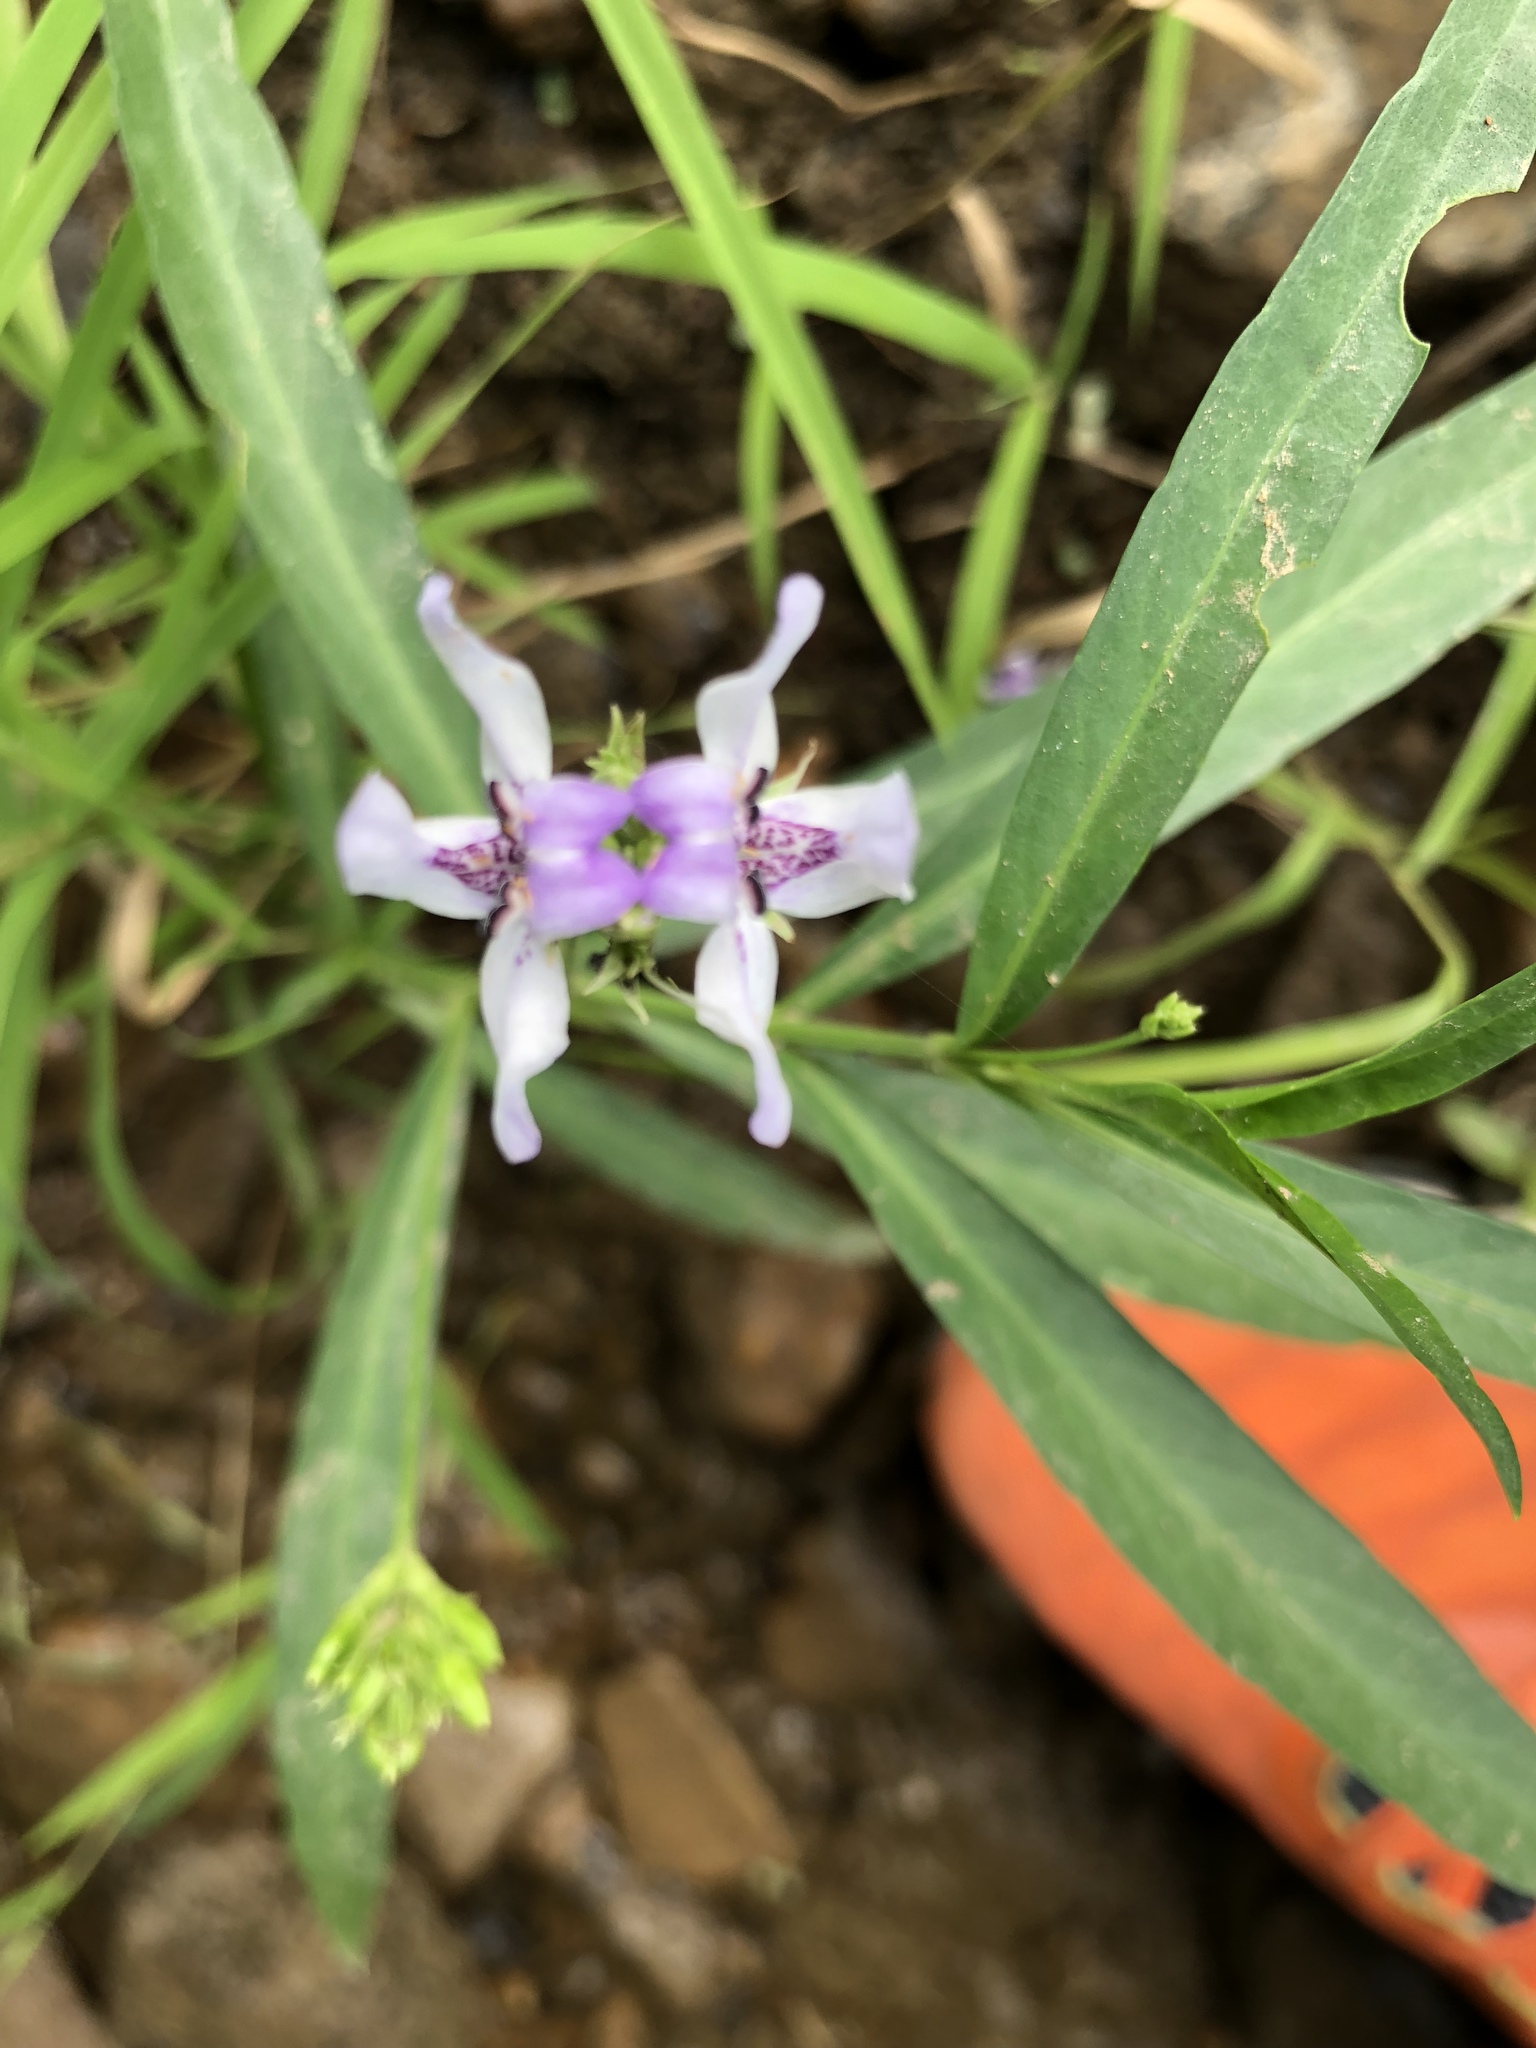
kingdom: Plantae
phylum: Tracheophyta
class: Magnoliopsida
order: Lamiales
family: Acanthaceae
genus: Dianthera
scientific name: Dianthera americana
